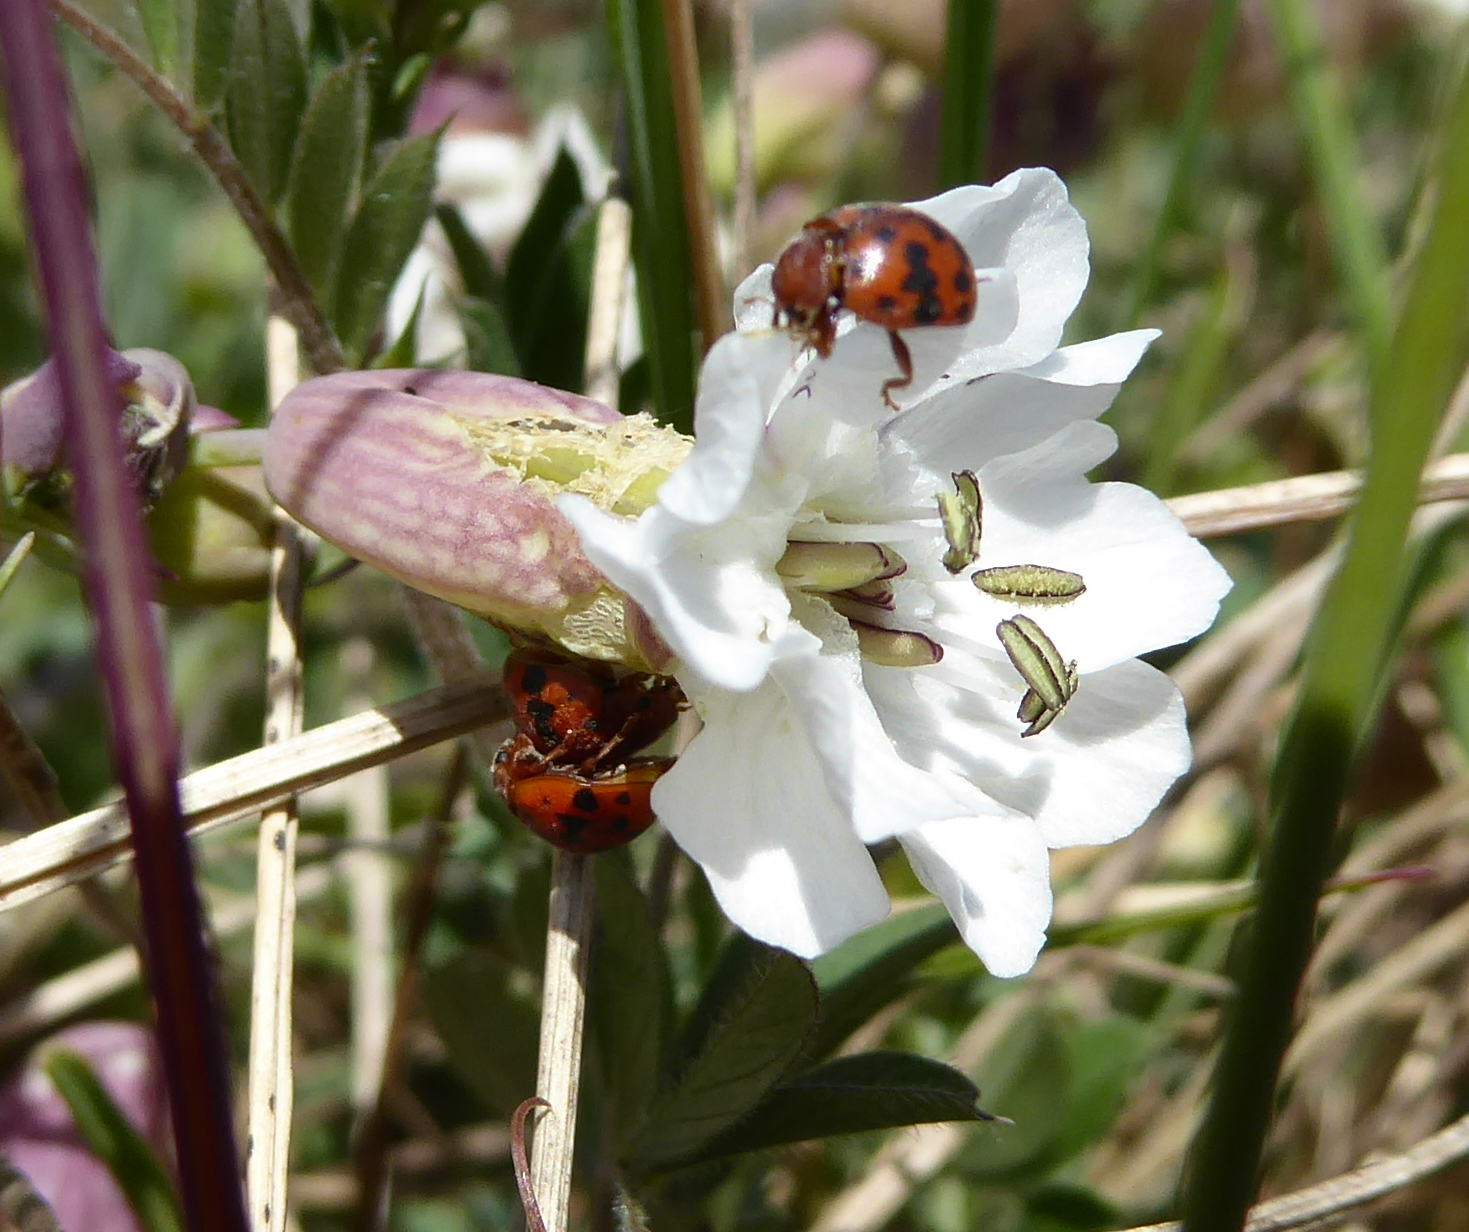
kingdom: Plantae
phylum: Tracheophyta
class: Magnoliopsida
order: Caryophyllales
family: Caryophyllaceae
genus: Silene
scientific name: Silene uniflora
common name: Sea campion
